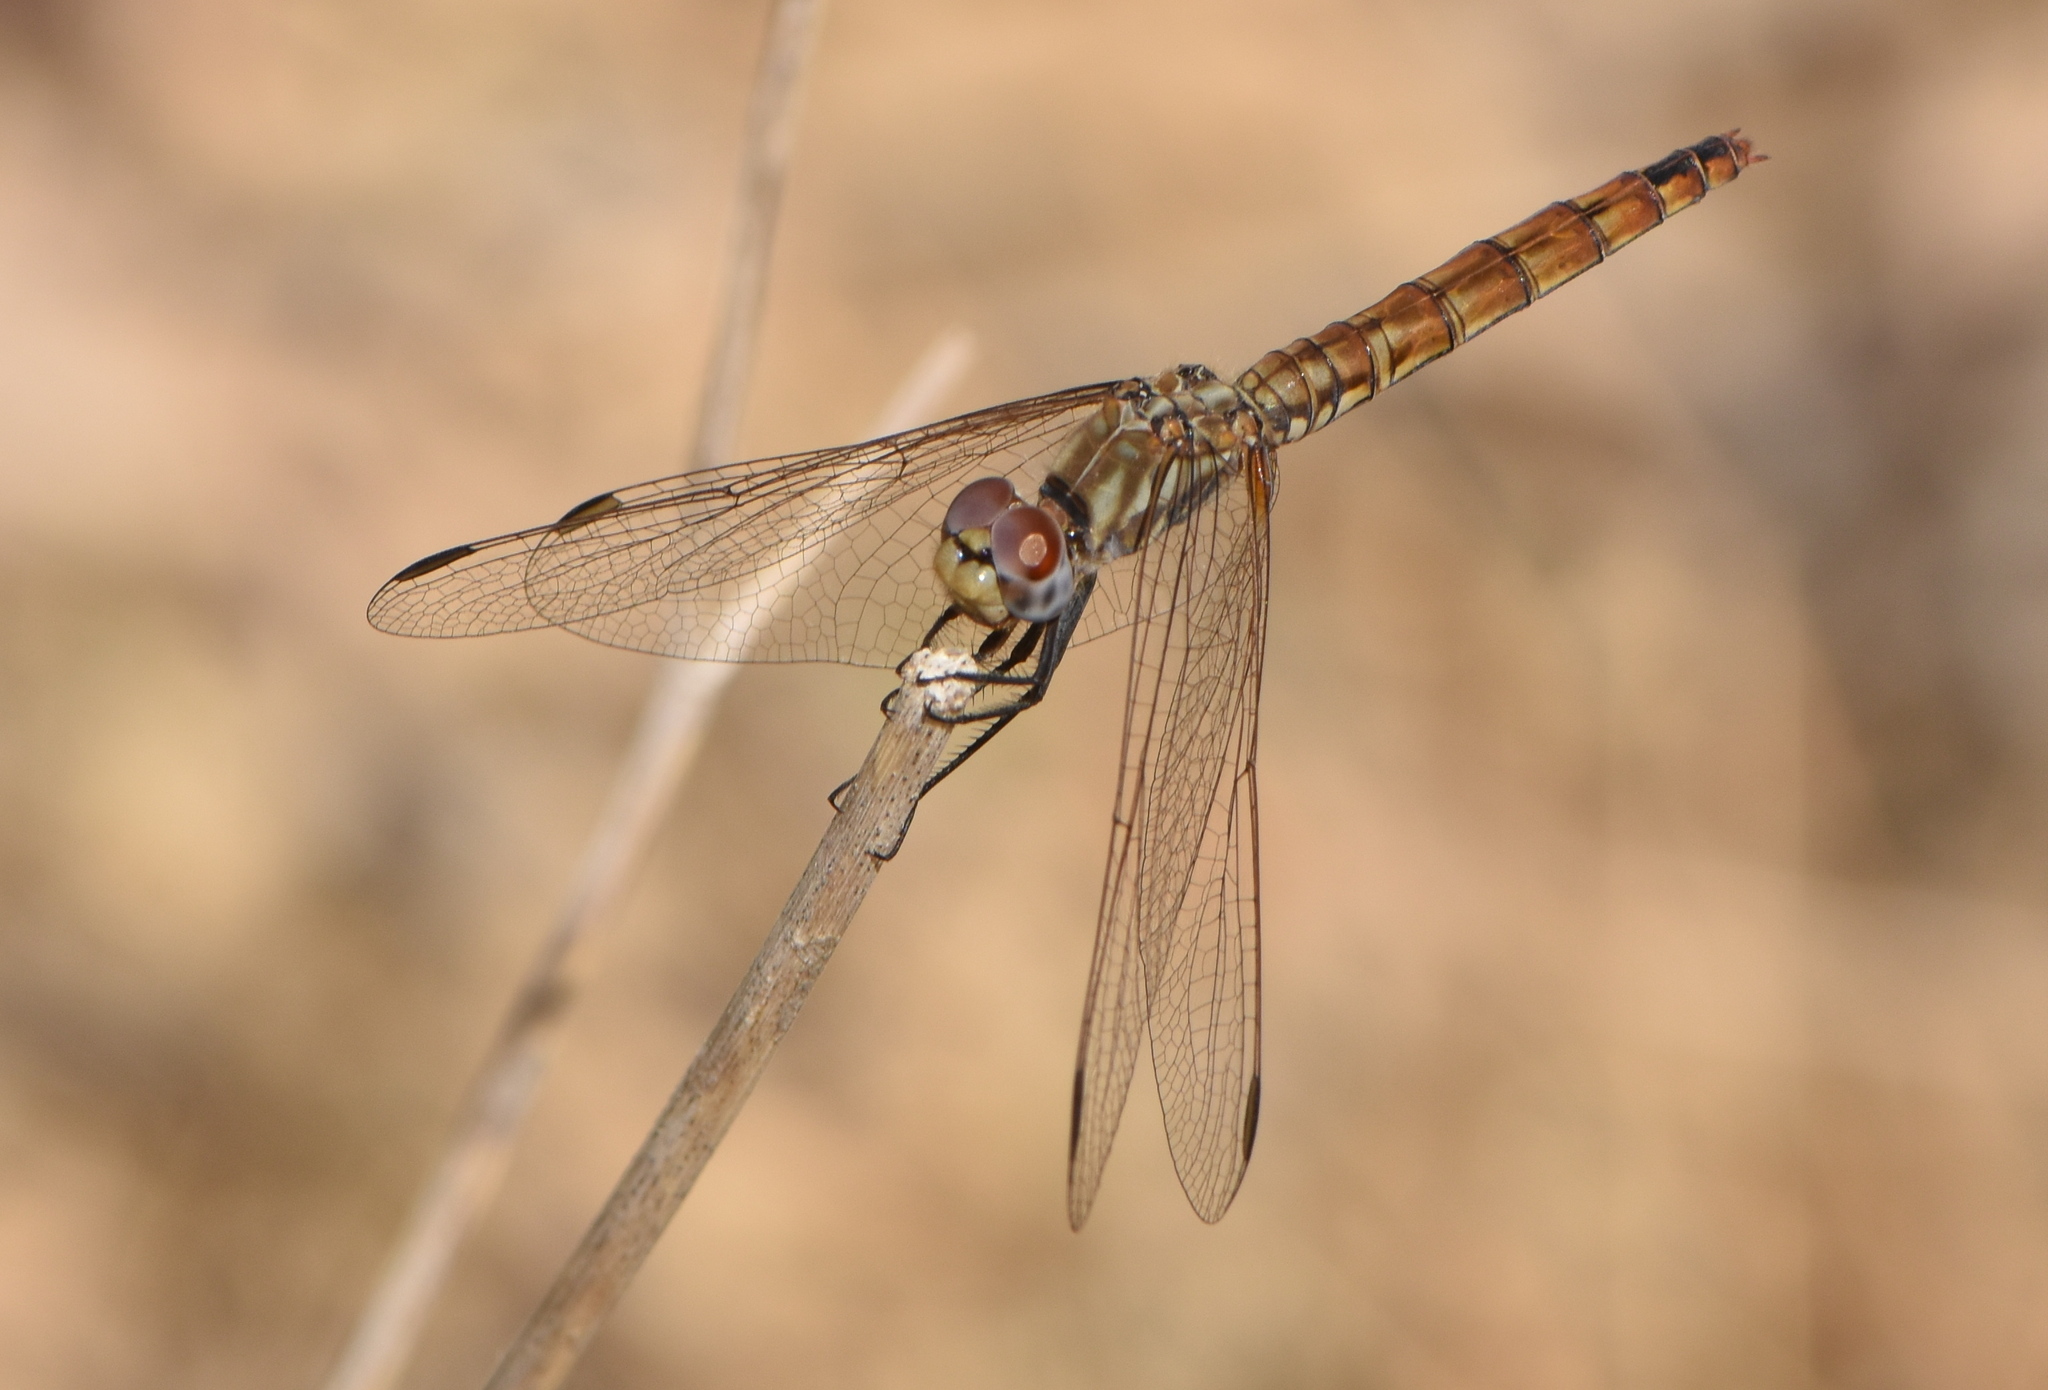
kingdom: Animalia
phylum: Arthropoda
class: Insecta
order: Odonata
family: Libellulidae
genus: Trithemis
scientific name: Trithemis annulata
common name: Violet dropwing
